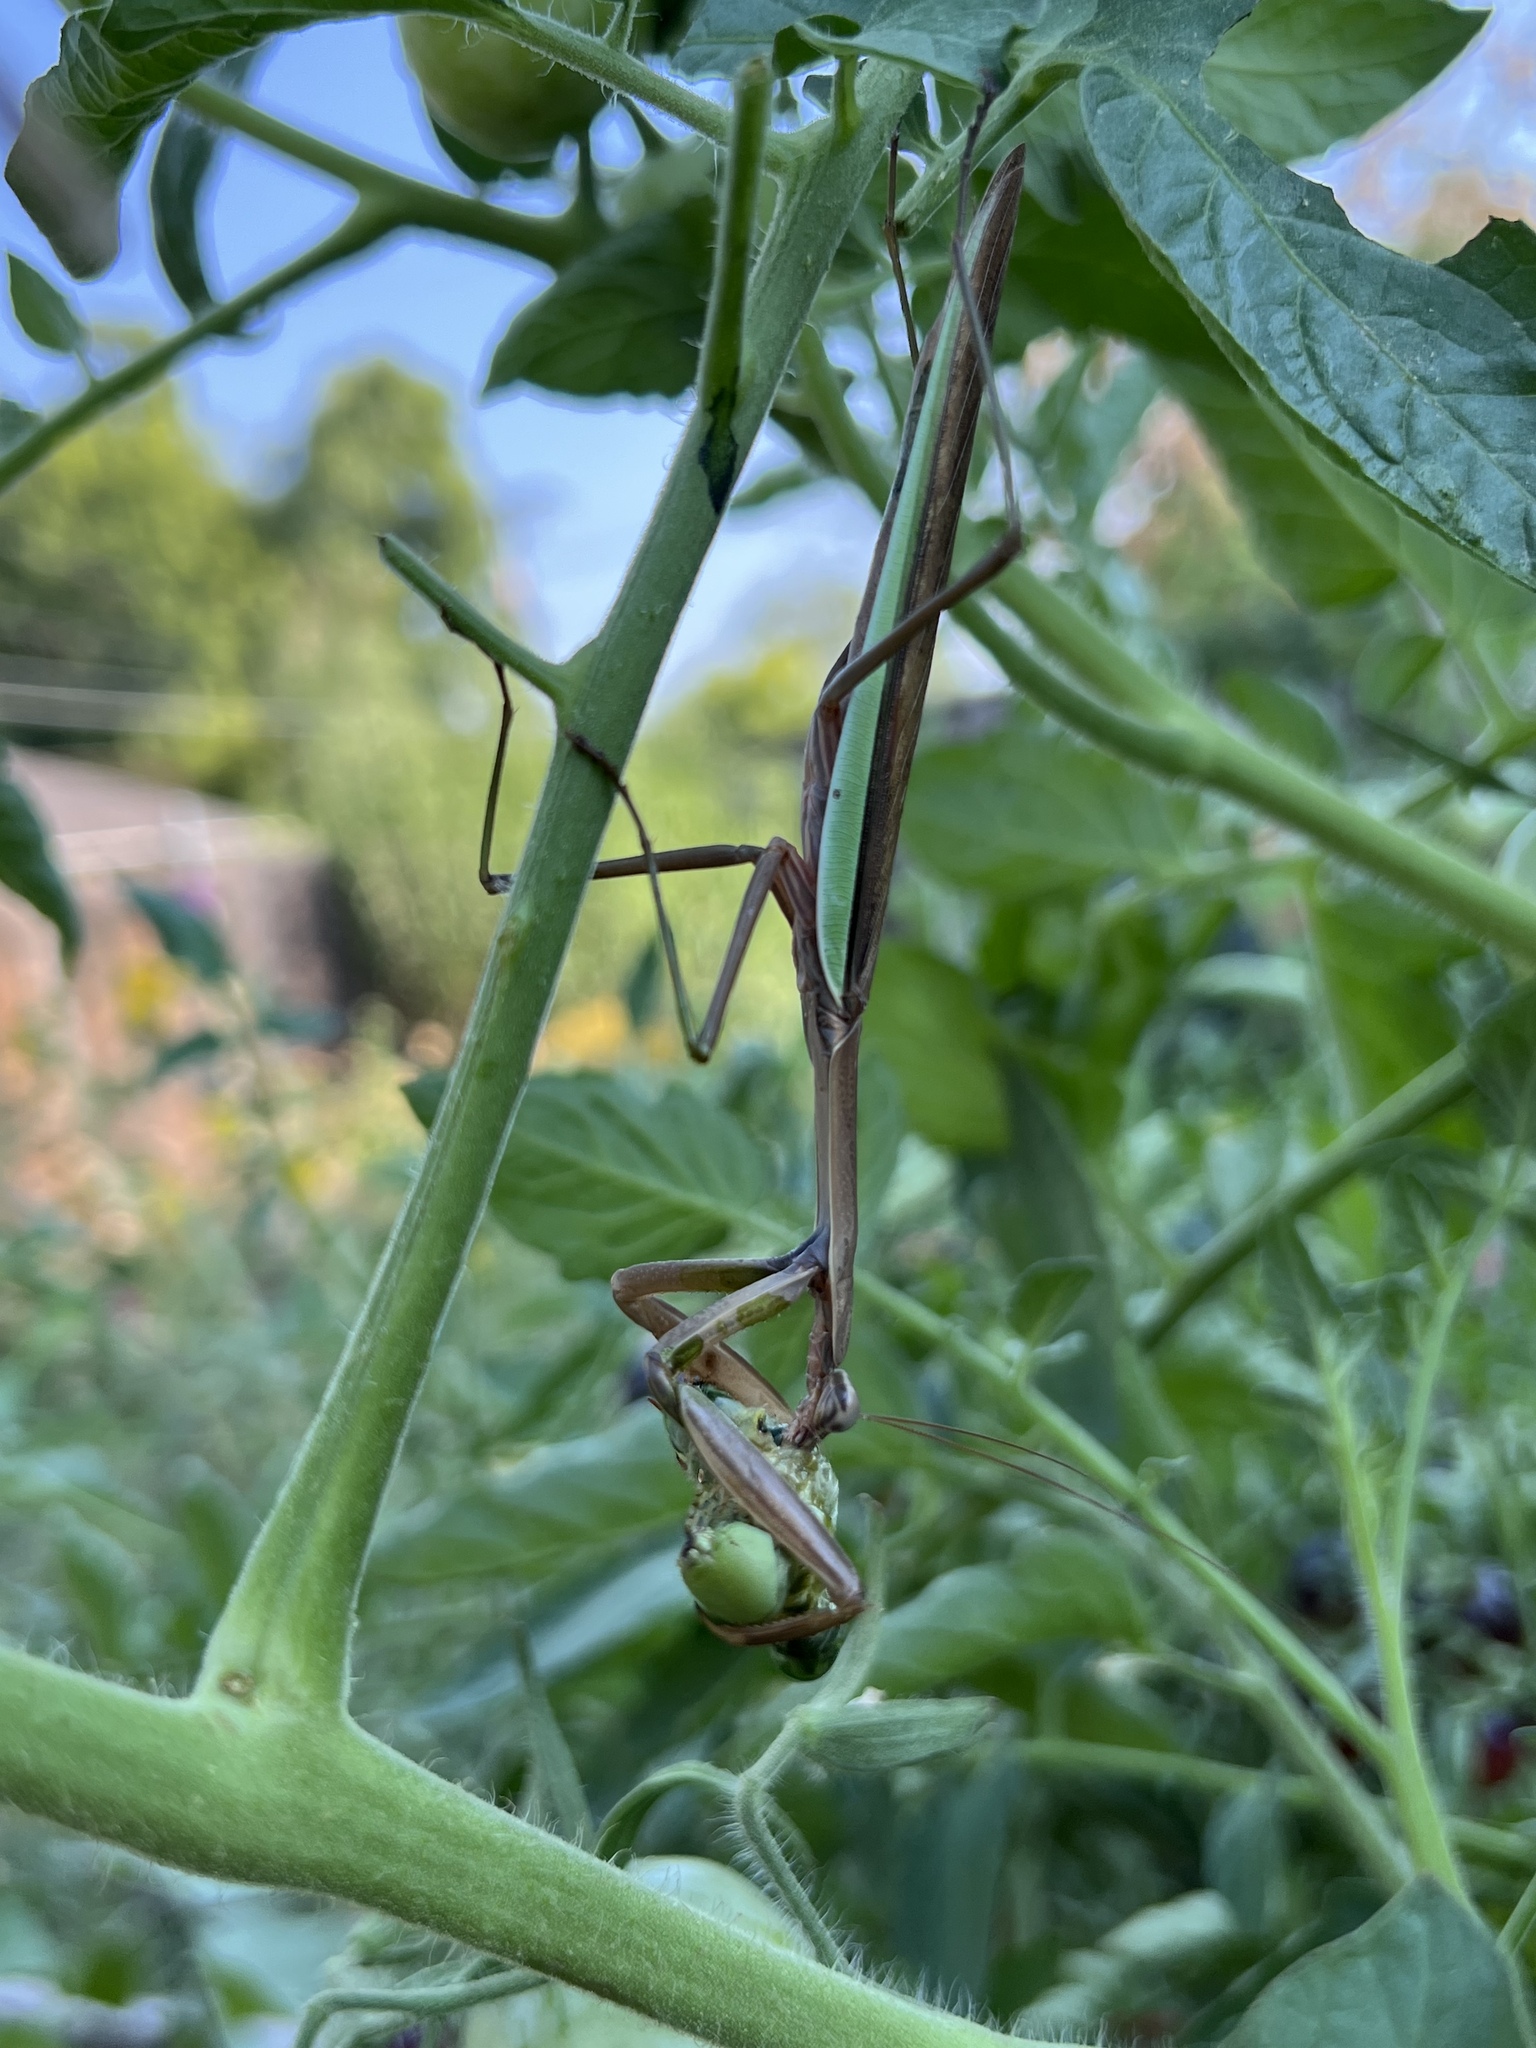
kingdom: Animalia
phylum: Arthropoda
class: Insecta
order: Lepidoptera
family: Sphingidae
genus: Manduca
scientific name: Manduca sexta
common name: Carolina sphinx
